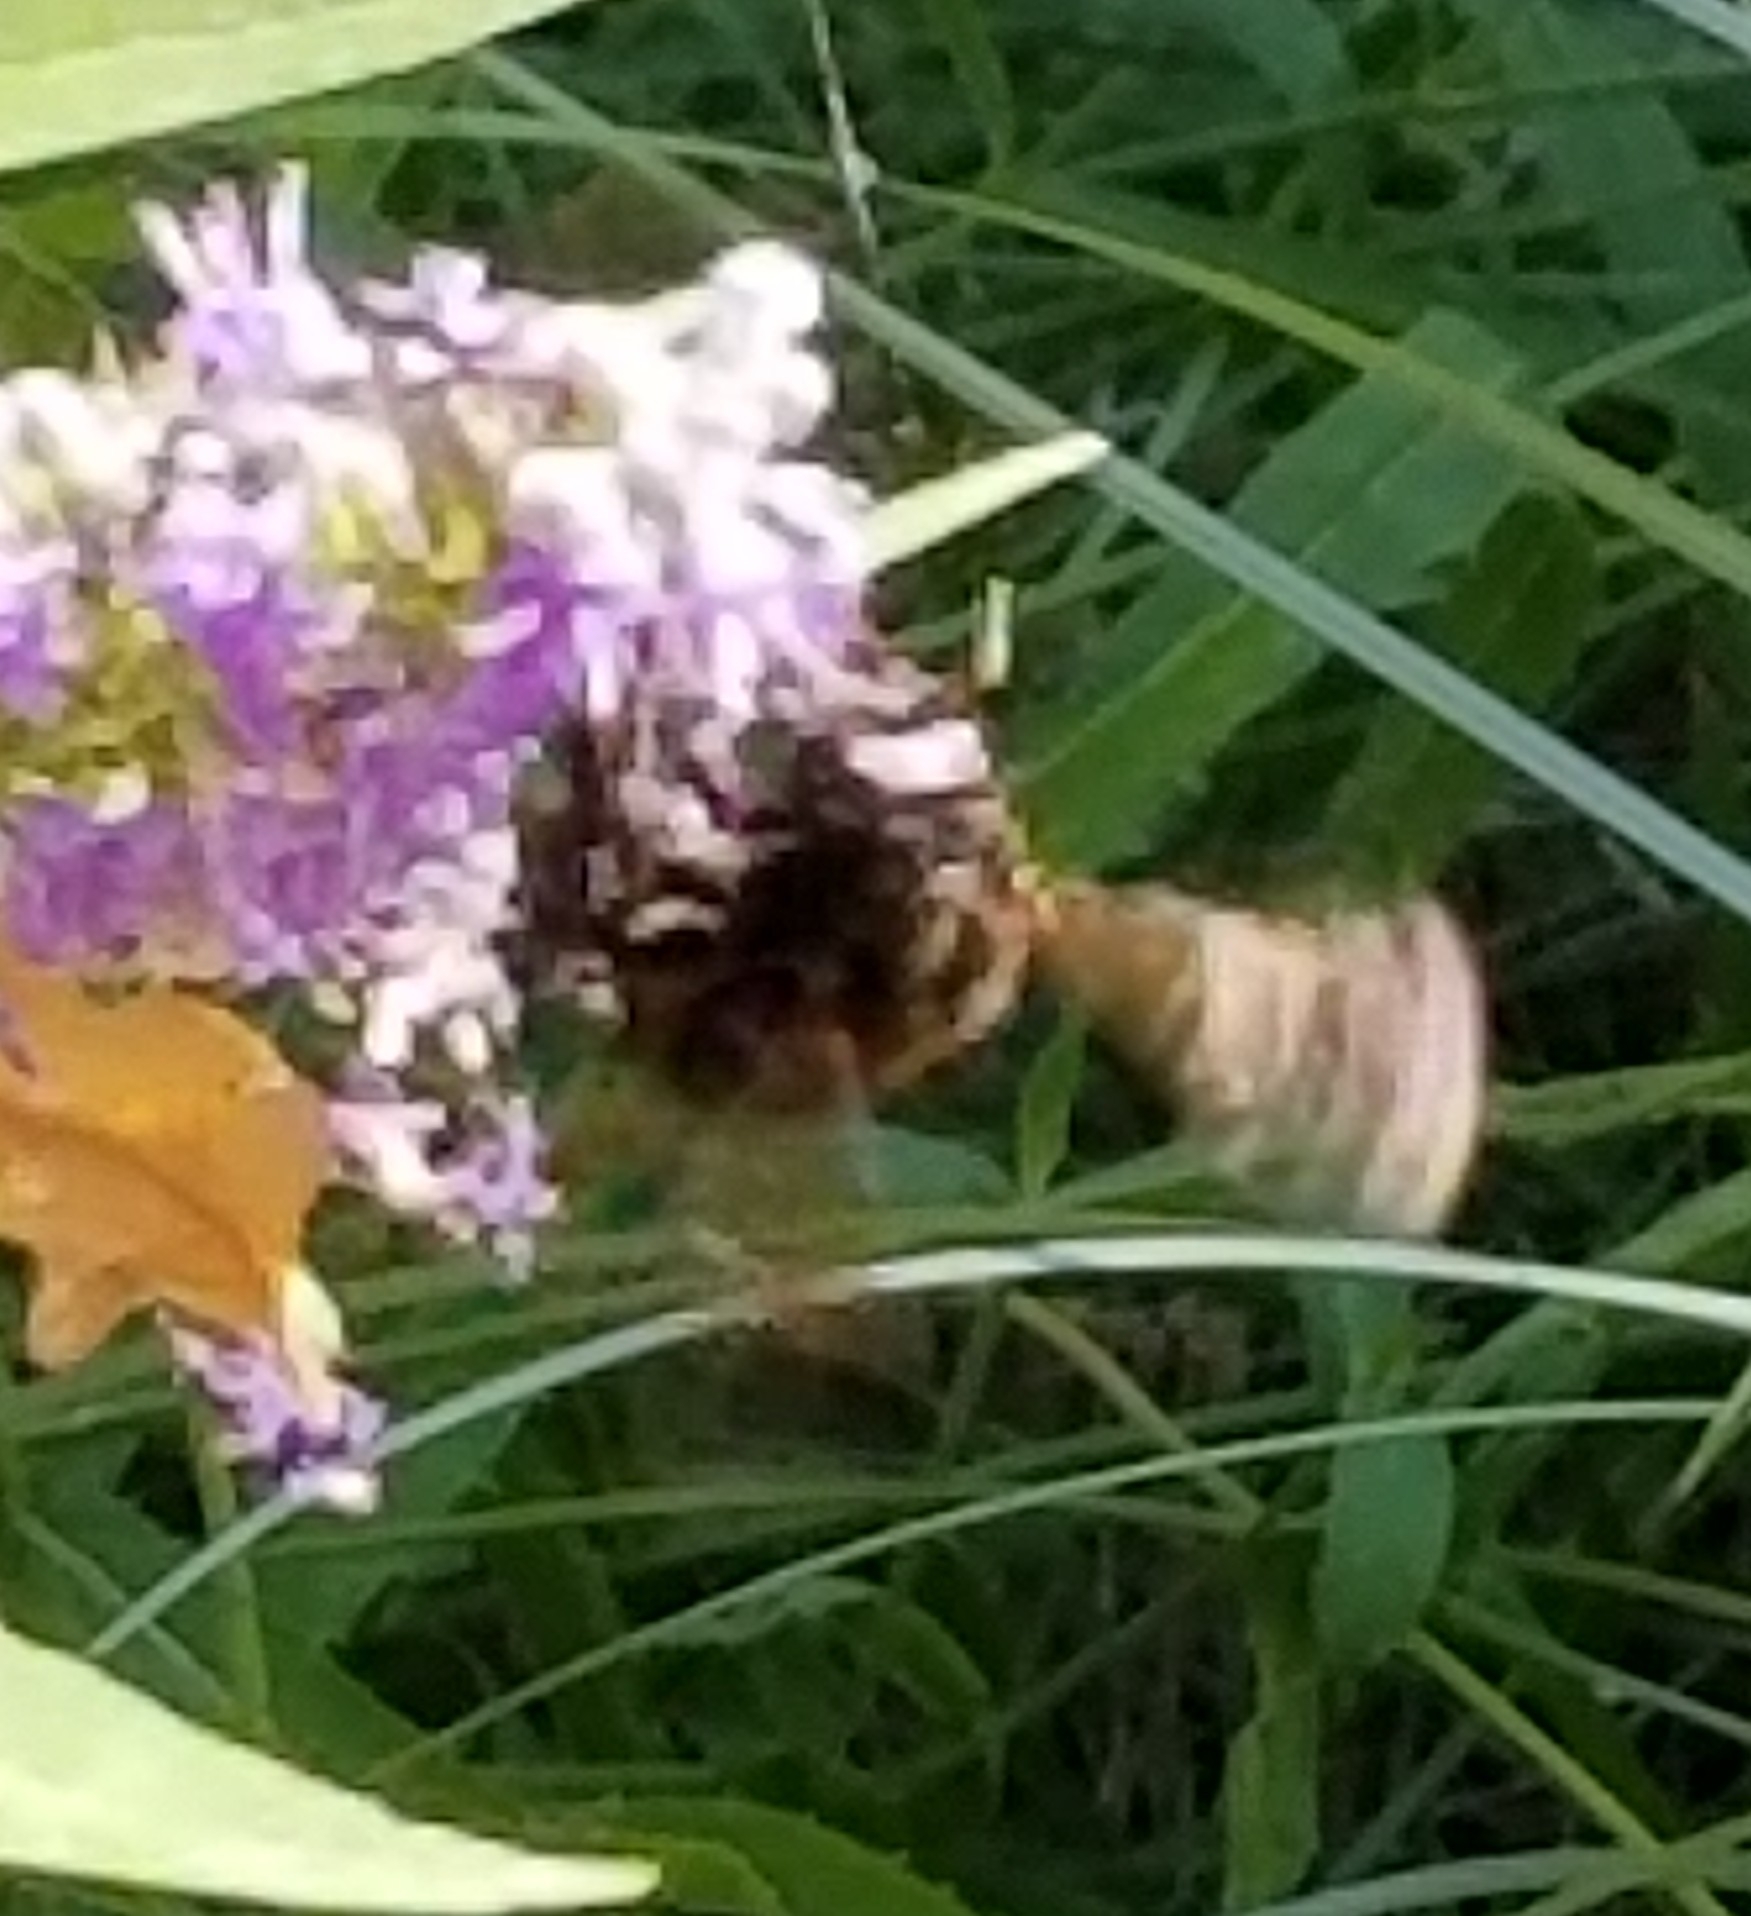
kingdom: Animalia
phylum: Arthropoda
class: Insecta
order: Hymenoptera
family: Apidae
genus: Xylocopa
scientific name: Xylocopa sonorina
